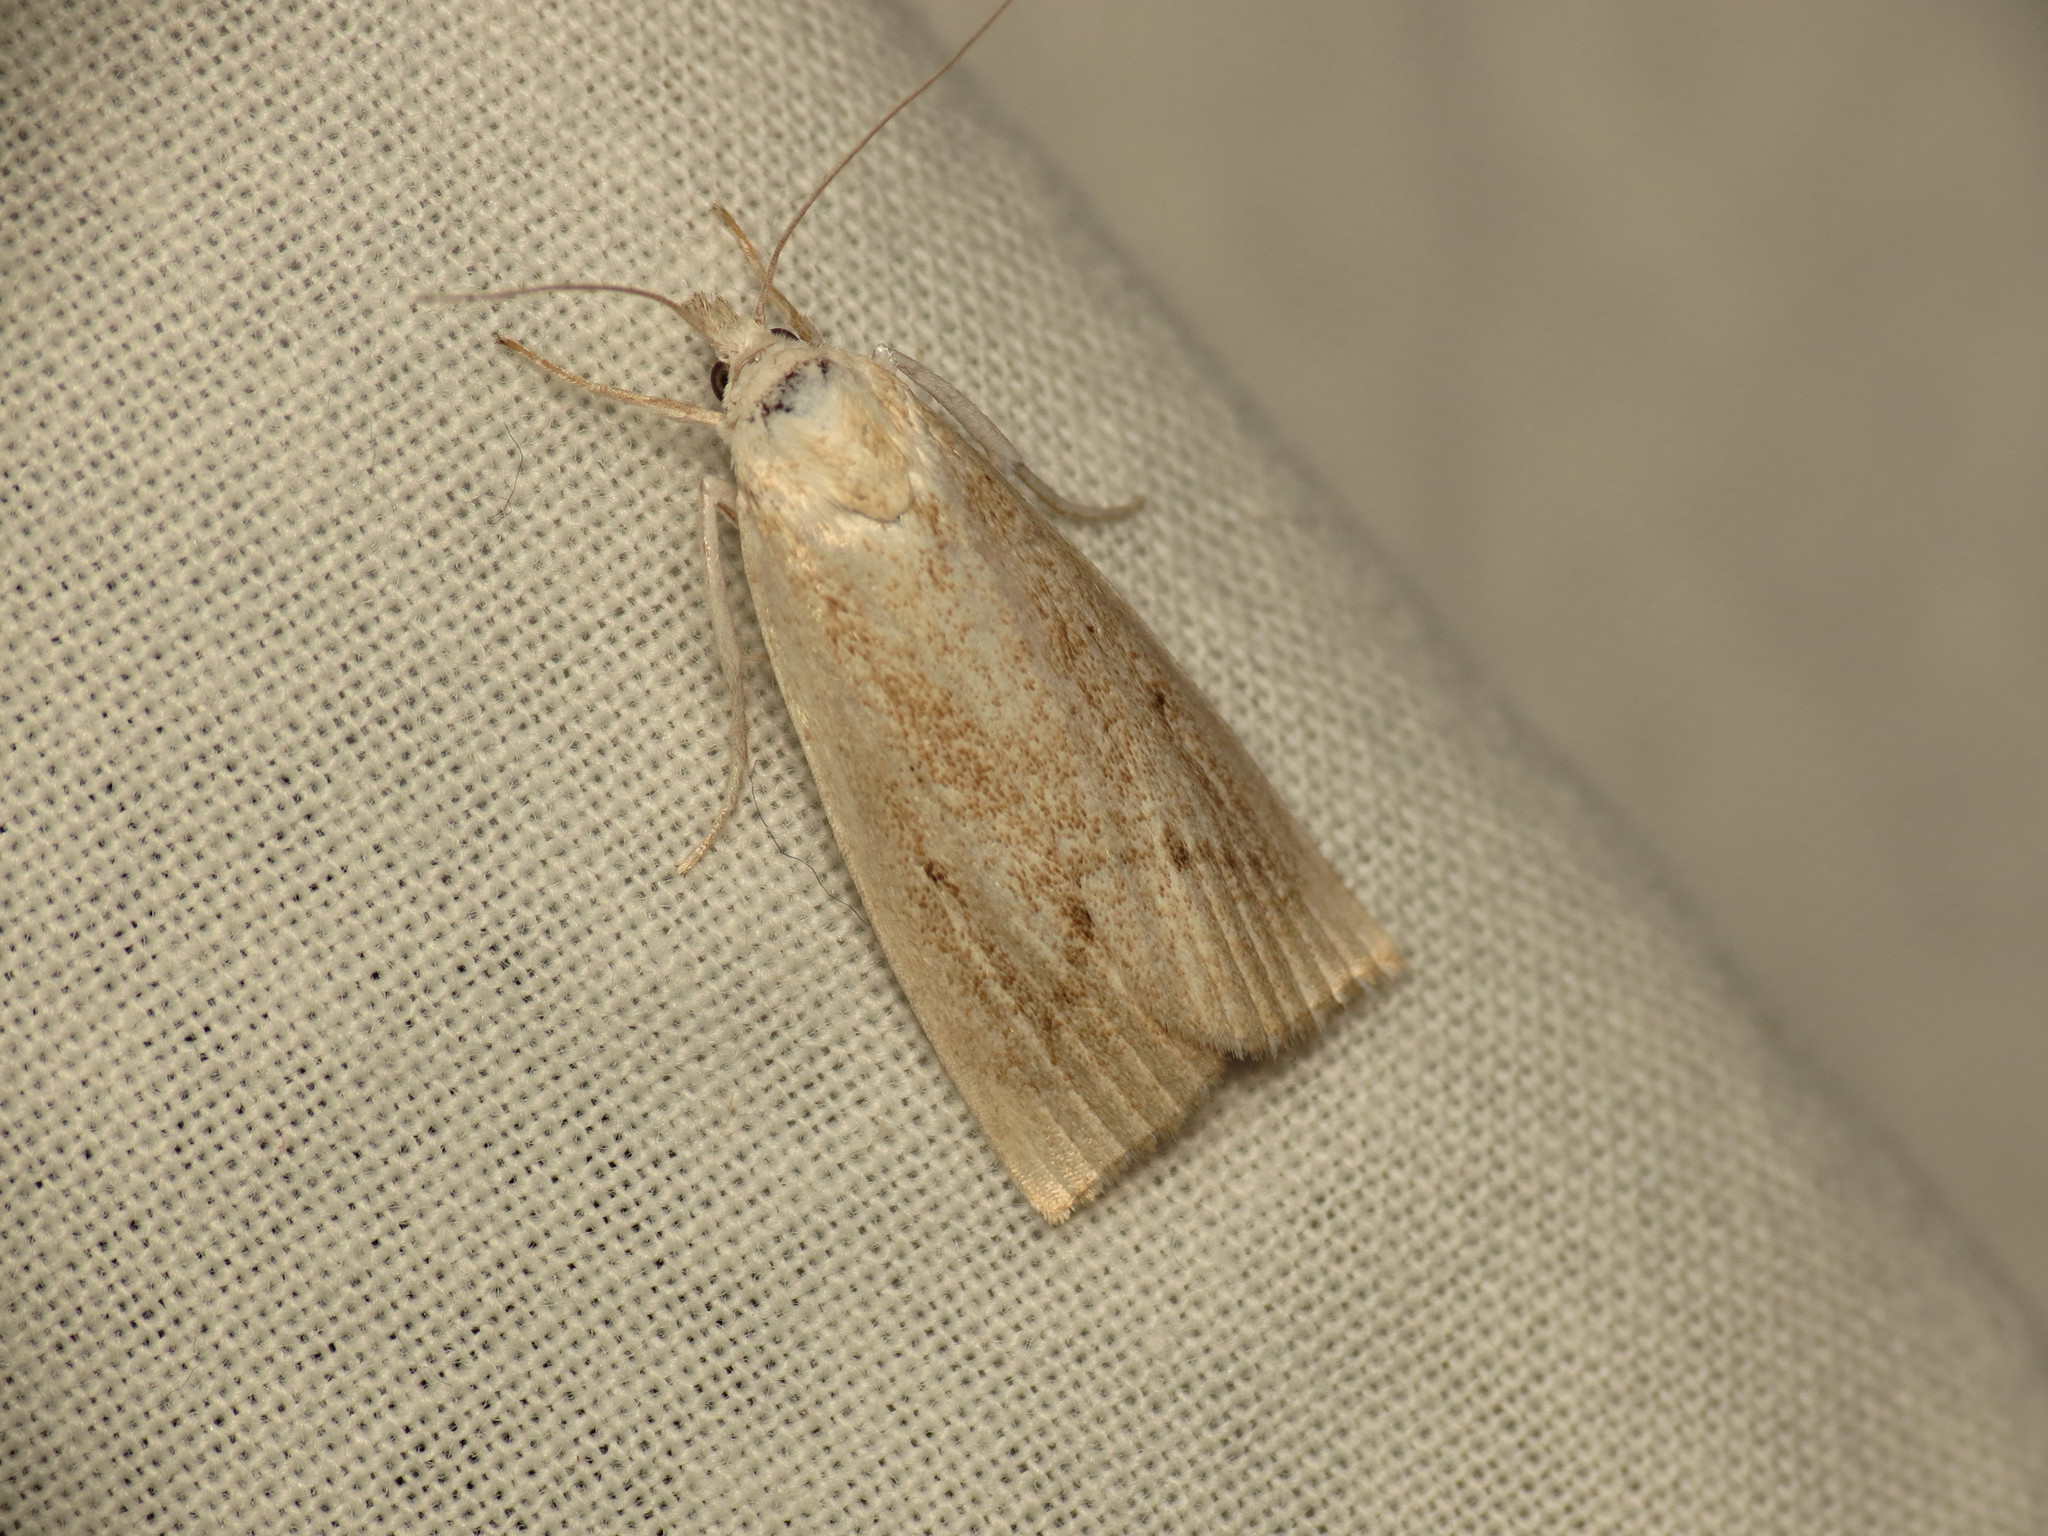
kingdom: Animalia
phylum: Arthropoda
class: Insecta
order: Lepidoptera
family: Crambidae
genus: Calamotropha
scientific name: Calamotropha paludella
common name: Bulrush veneer
